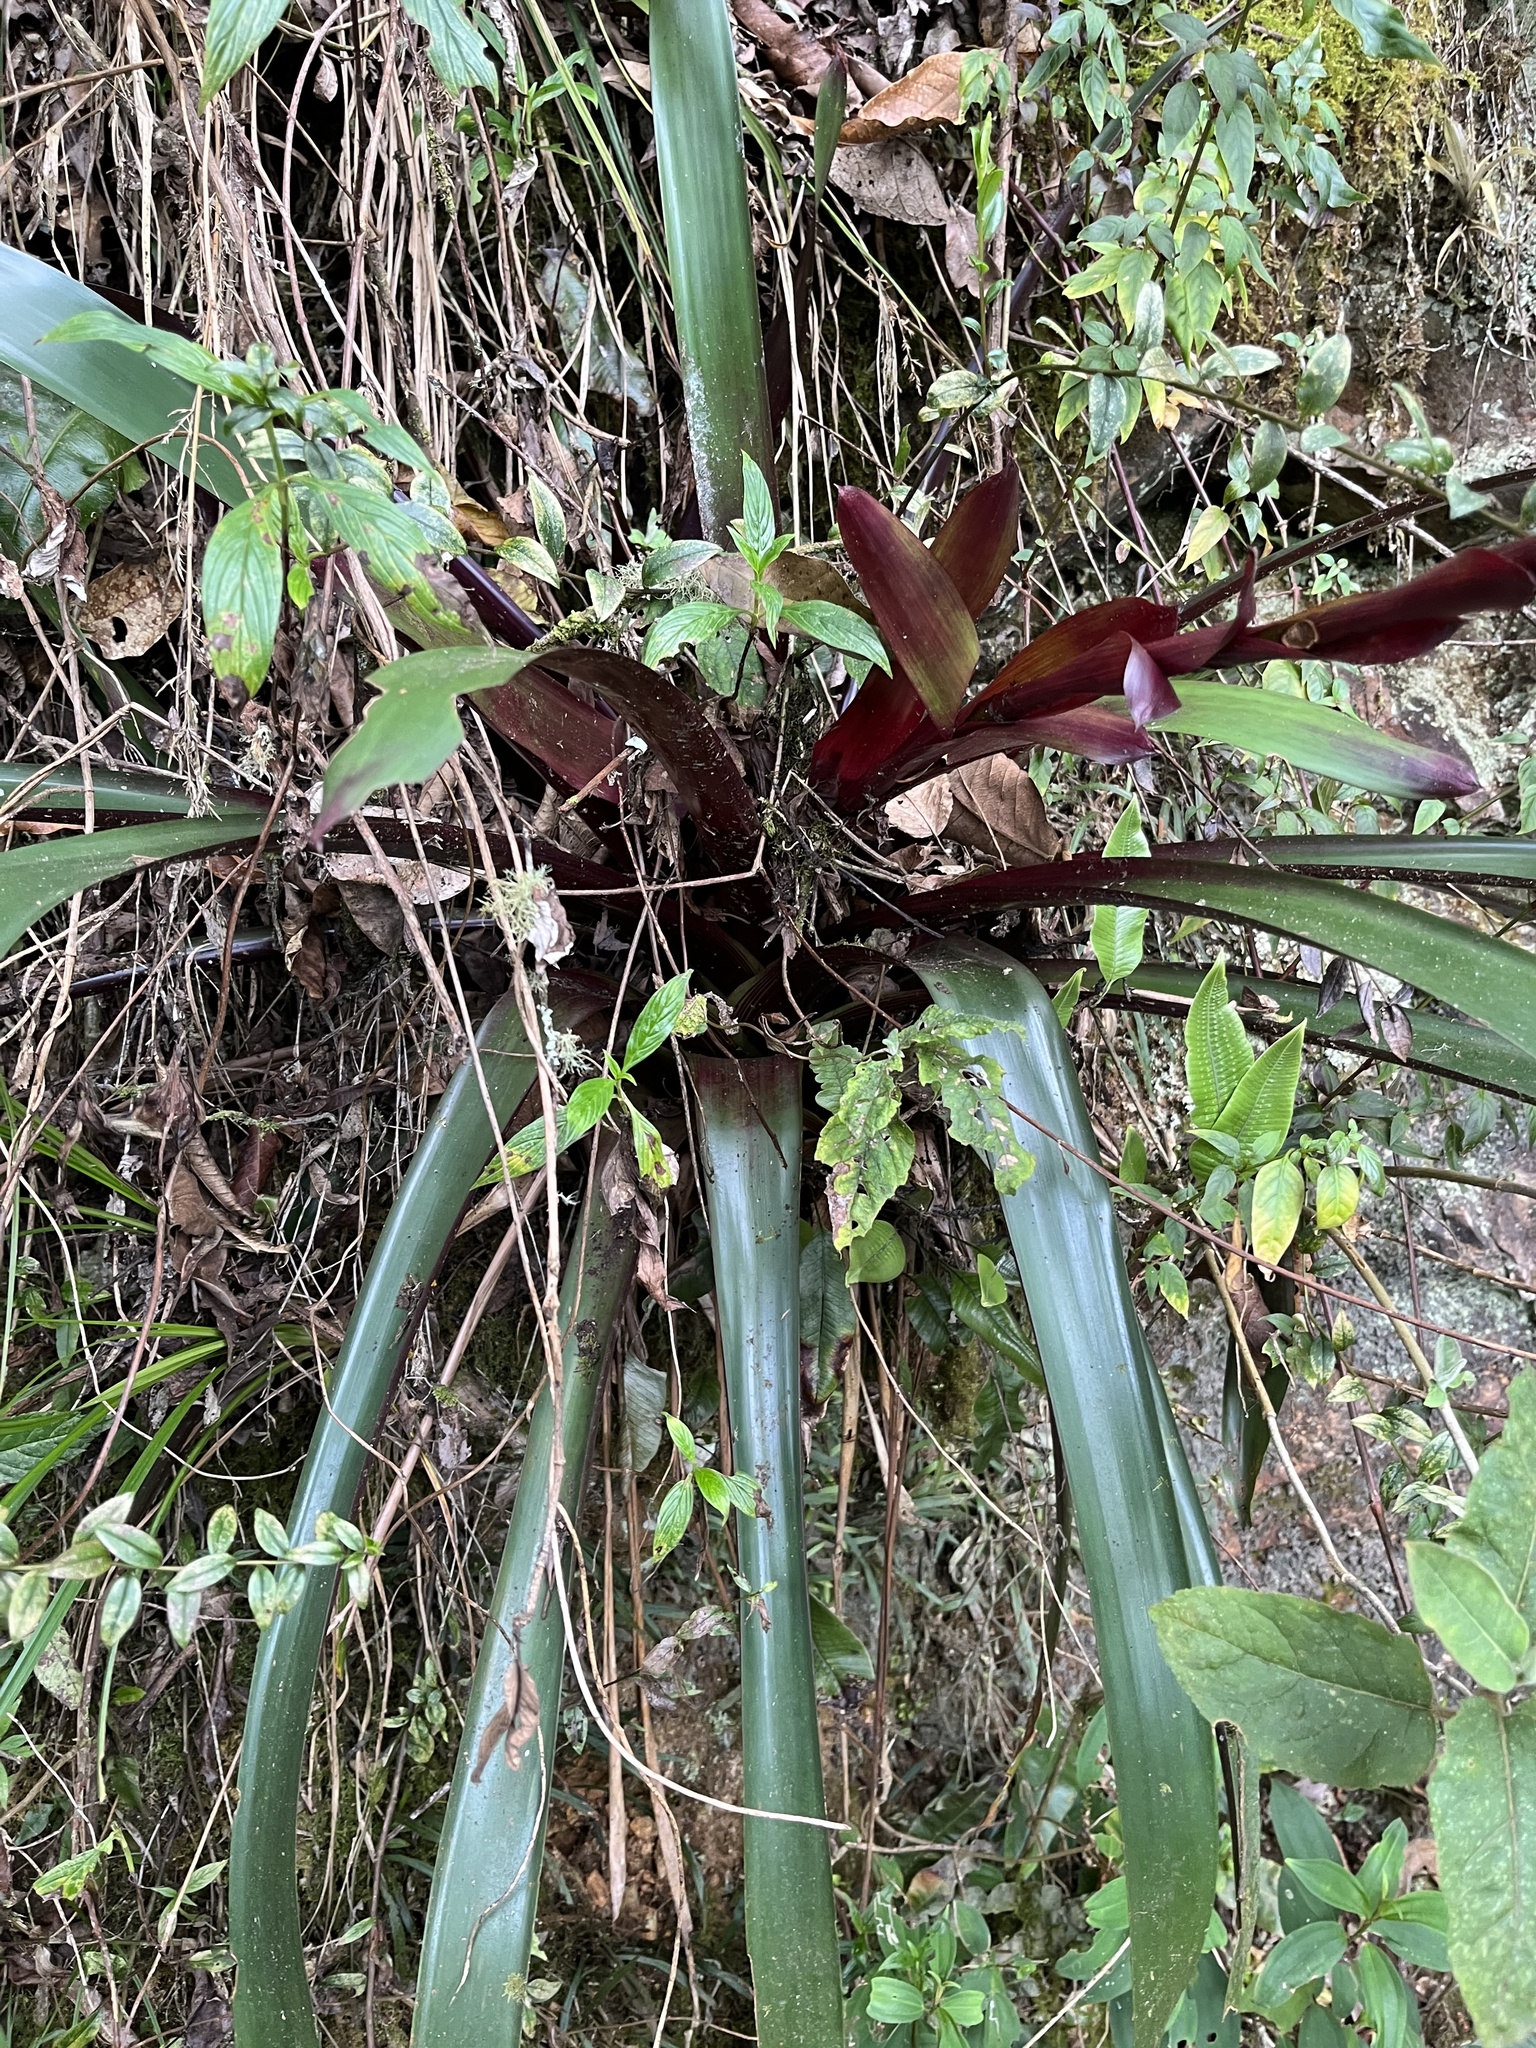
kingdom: Plantae
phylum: Tracheophyta
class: Liliopsida
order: Poales
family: Bromeliaceae
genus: Guzmania
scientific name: Guzmania mitis
